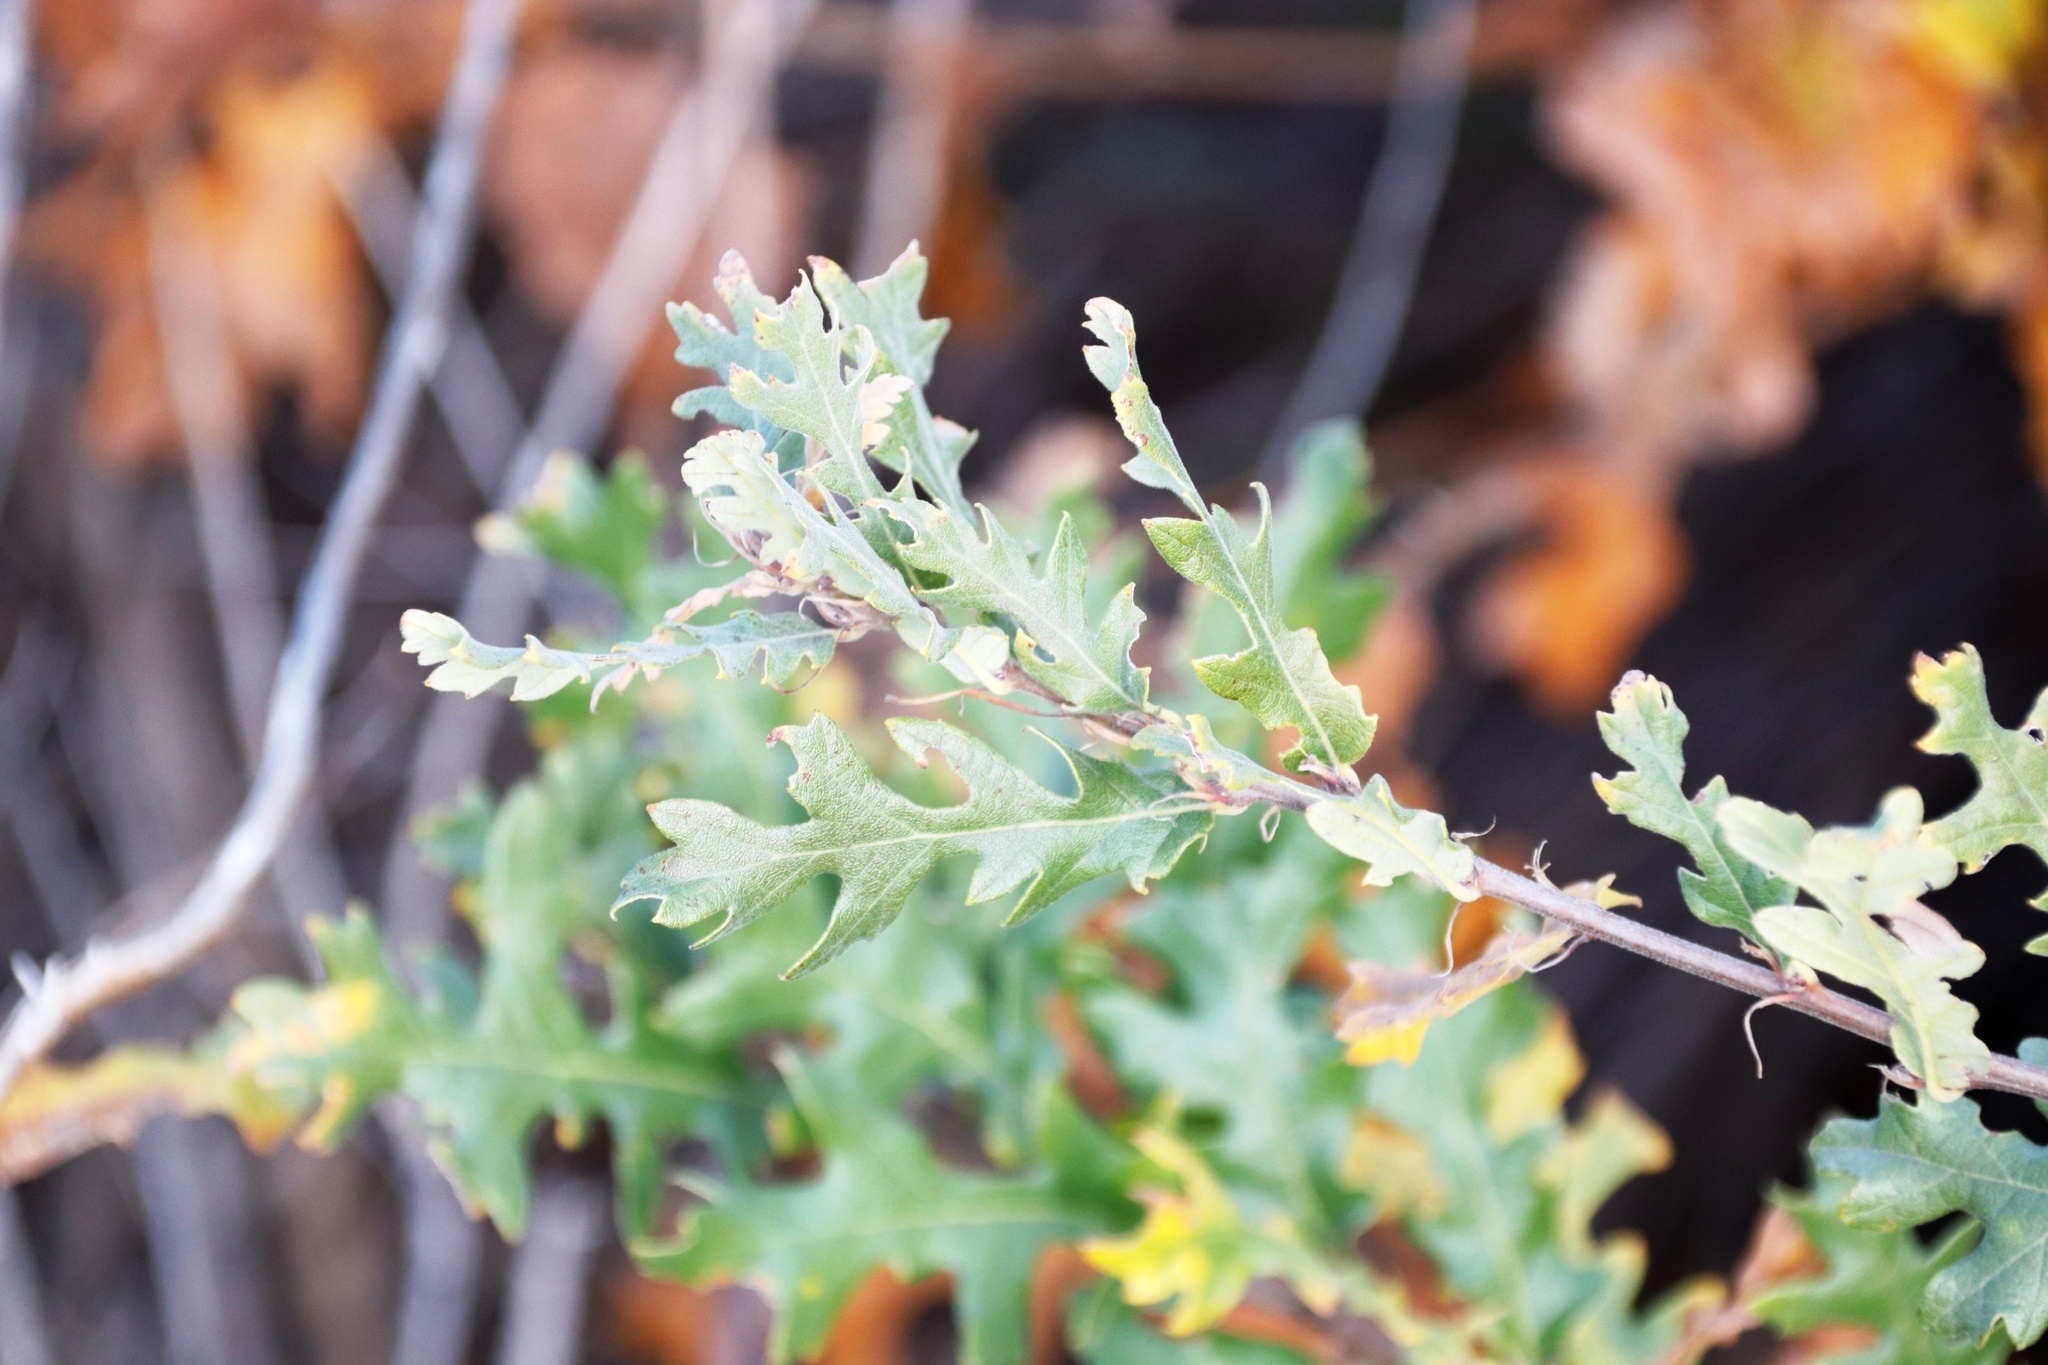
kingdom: Plantae
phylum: Tracheophyta
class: Magnoliopsida
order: Fagales
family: Fagaceae
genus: Quercus
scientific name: Quercus cerris
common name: Turkey oak
